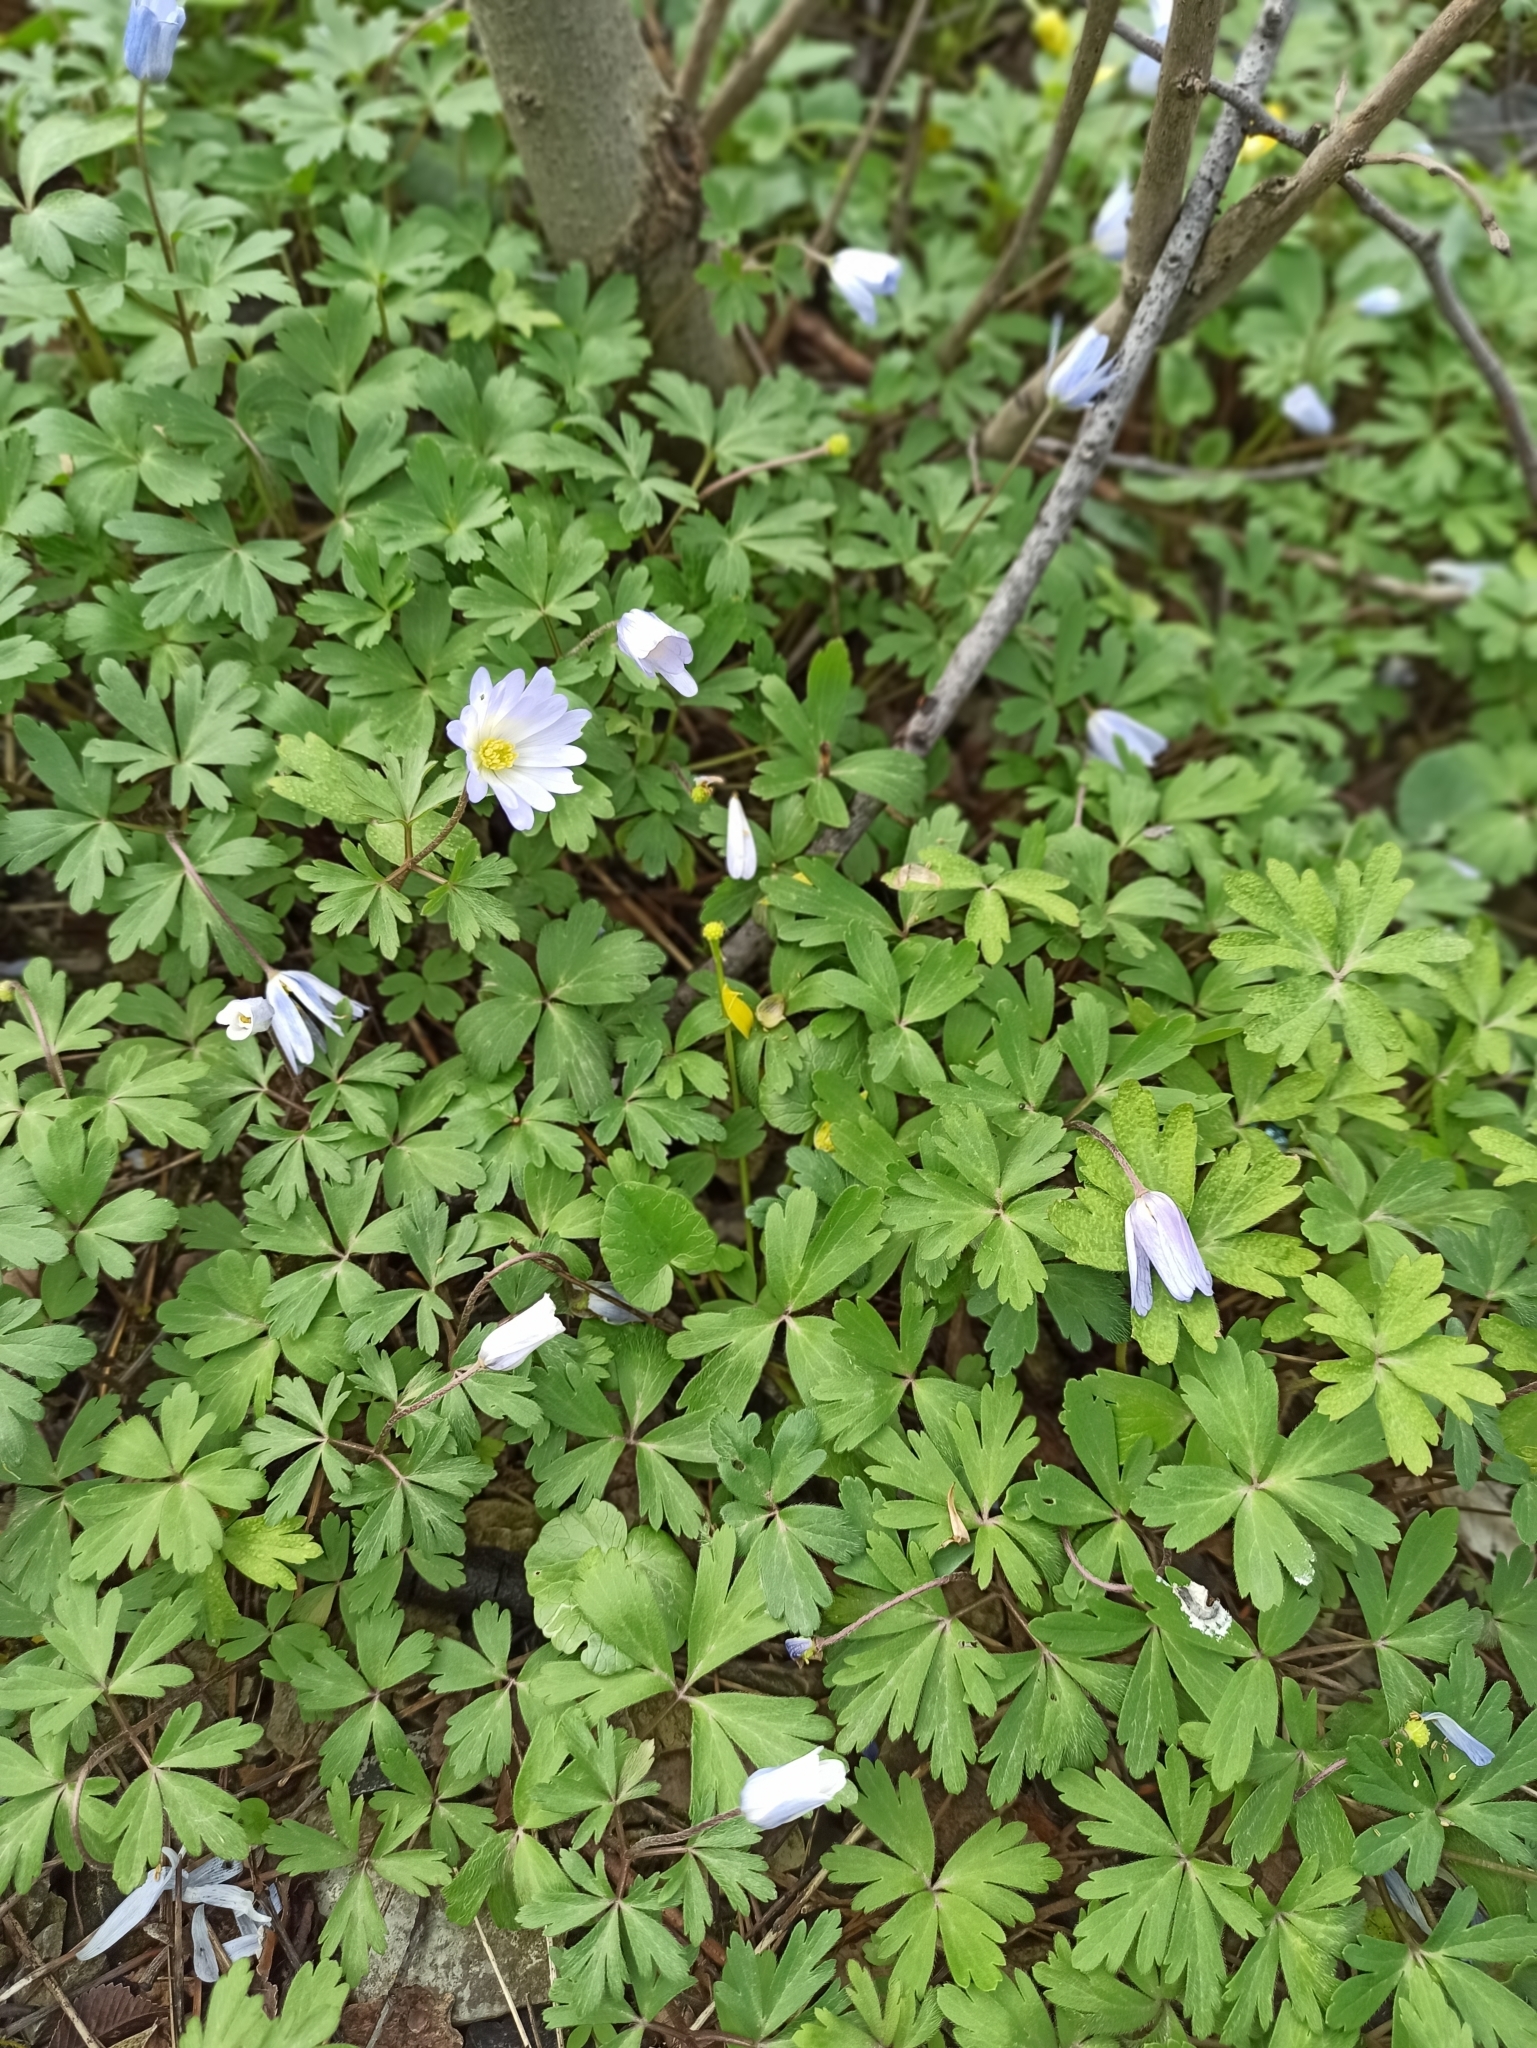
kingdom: Plantae
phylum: Tracheophyta
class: Magnoliopsida
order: Ranunculales
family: Ranunculaceae
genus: Anemone
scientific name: Anemone blanda
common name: Balkan anemone
